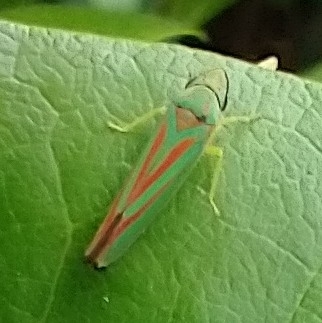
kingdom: Animalia
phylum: Arthropoda
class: Insecta
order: Hemiptera
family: Cicadellidae
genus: Graphocephala
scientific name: Graphocephala fennahi
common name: Rhododendron leafhopper
